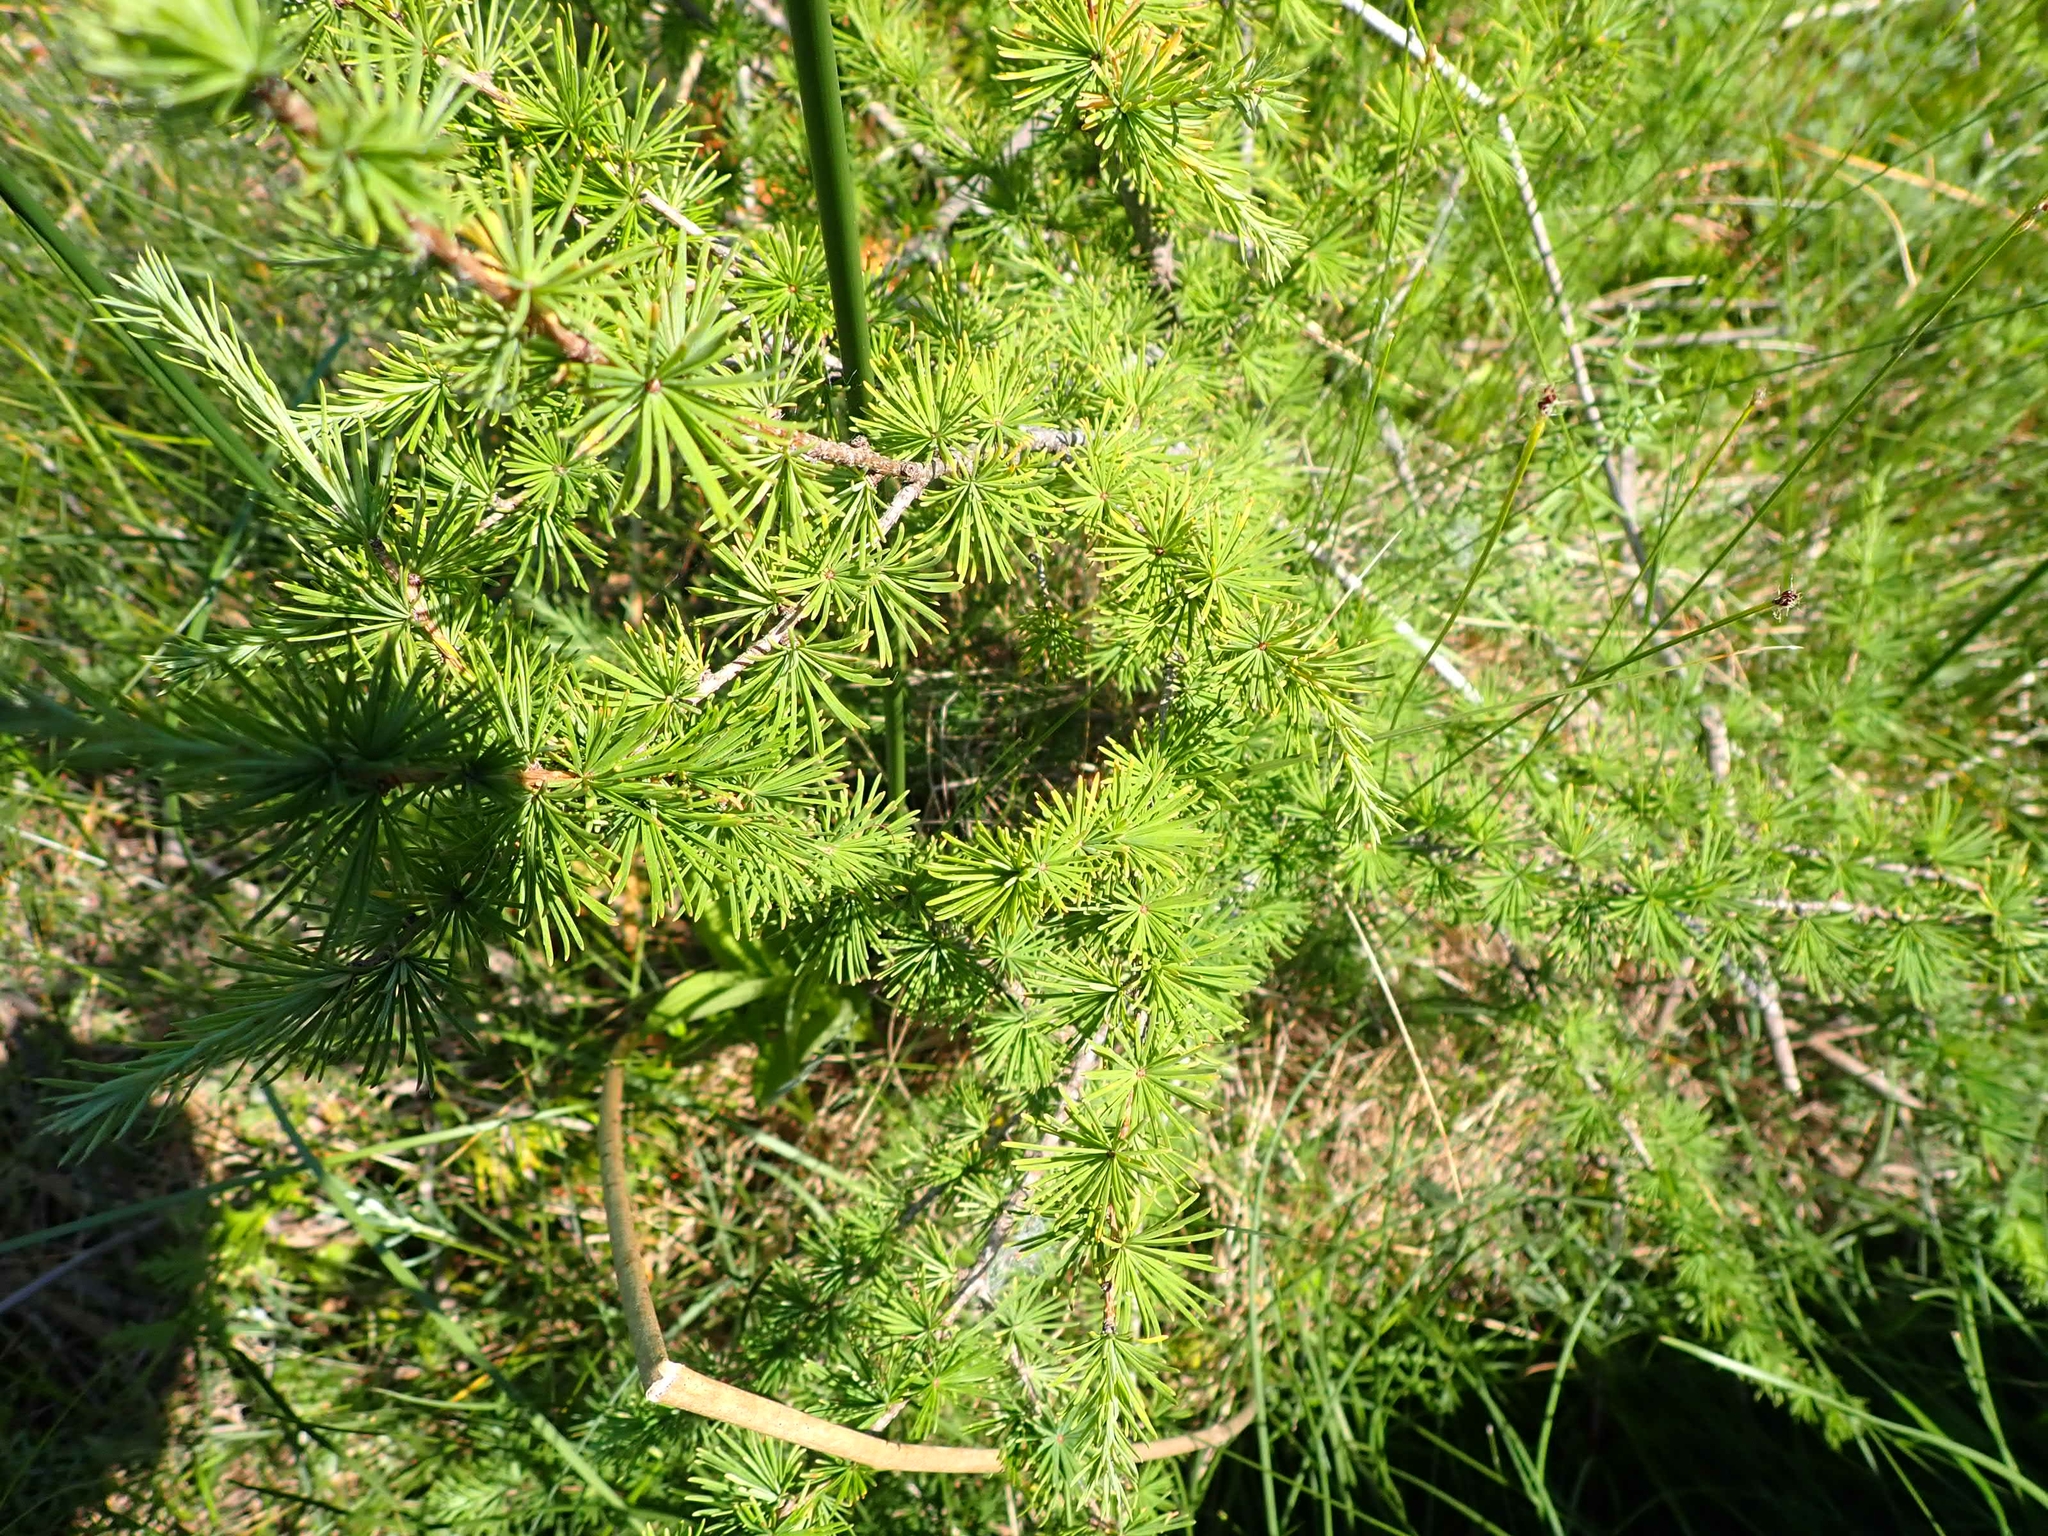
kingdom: Plantae
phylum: Tracheophyta
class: Pinopsida
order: Pinales
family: Pinaceae
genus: Larix
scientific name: Larix laricina
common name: American larch
